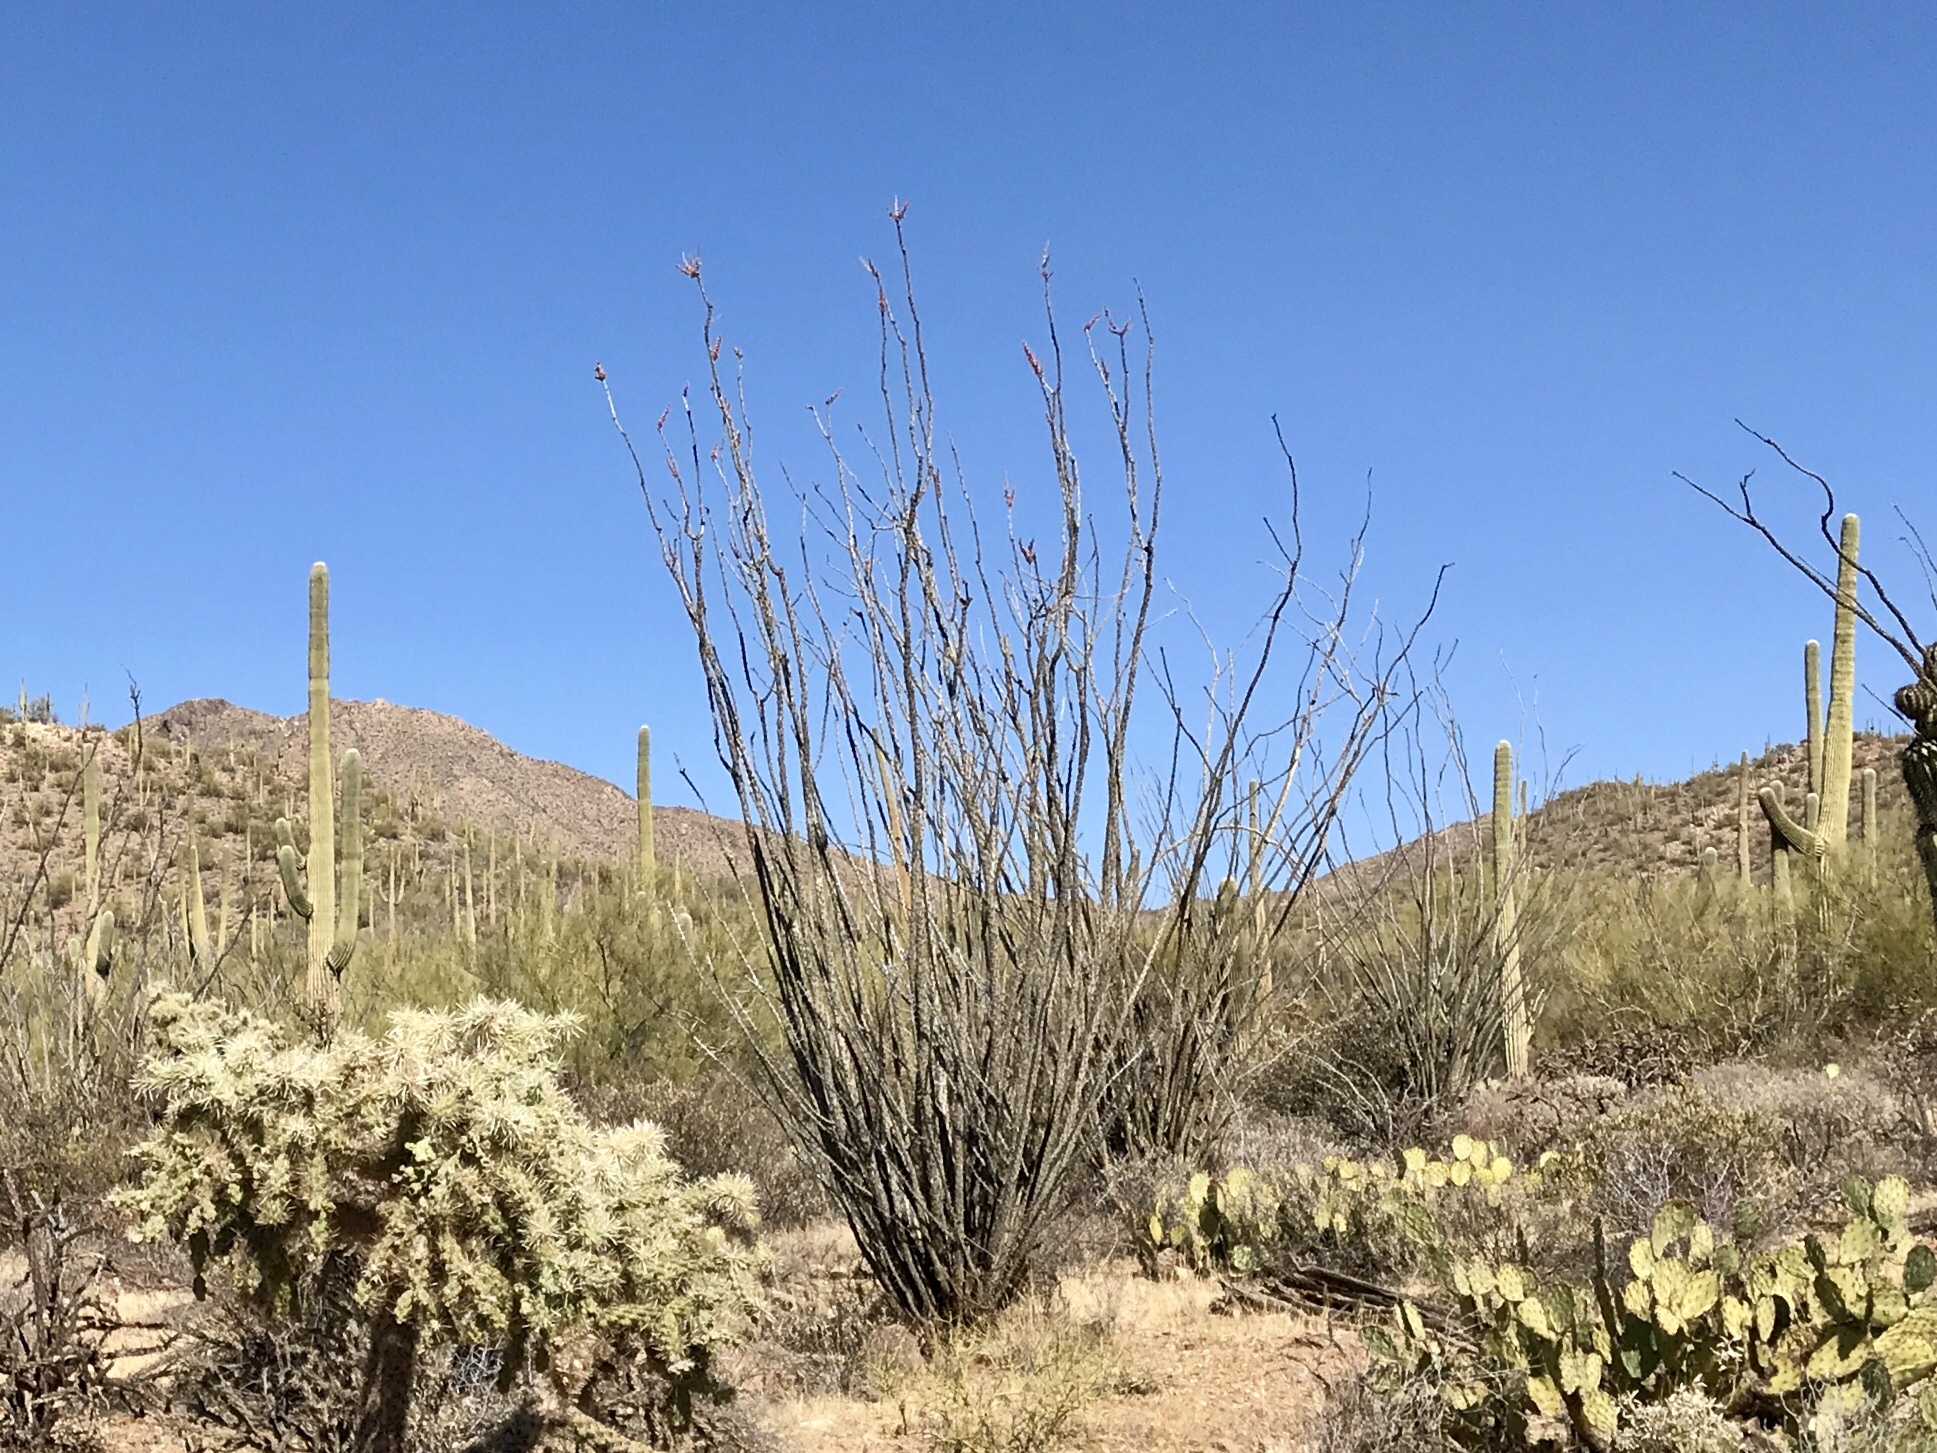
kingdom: Plantae
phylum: Tracheophyta
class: Magnoliopsida
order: Ericales
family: Fouquieriaceae
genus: Fouquieria
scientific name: Fouquieria splendens
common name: Vine-cactus
